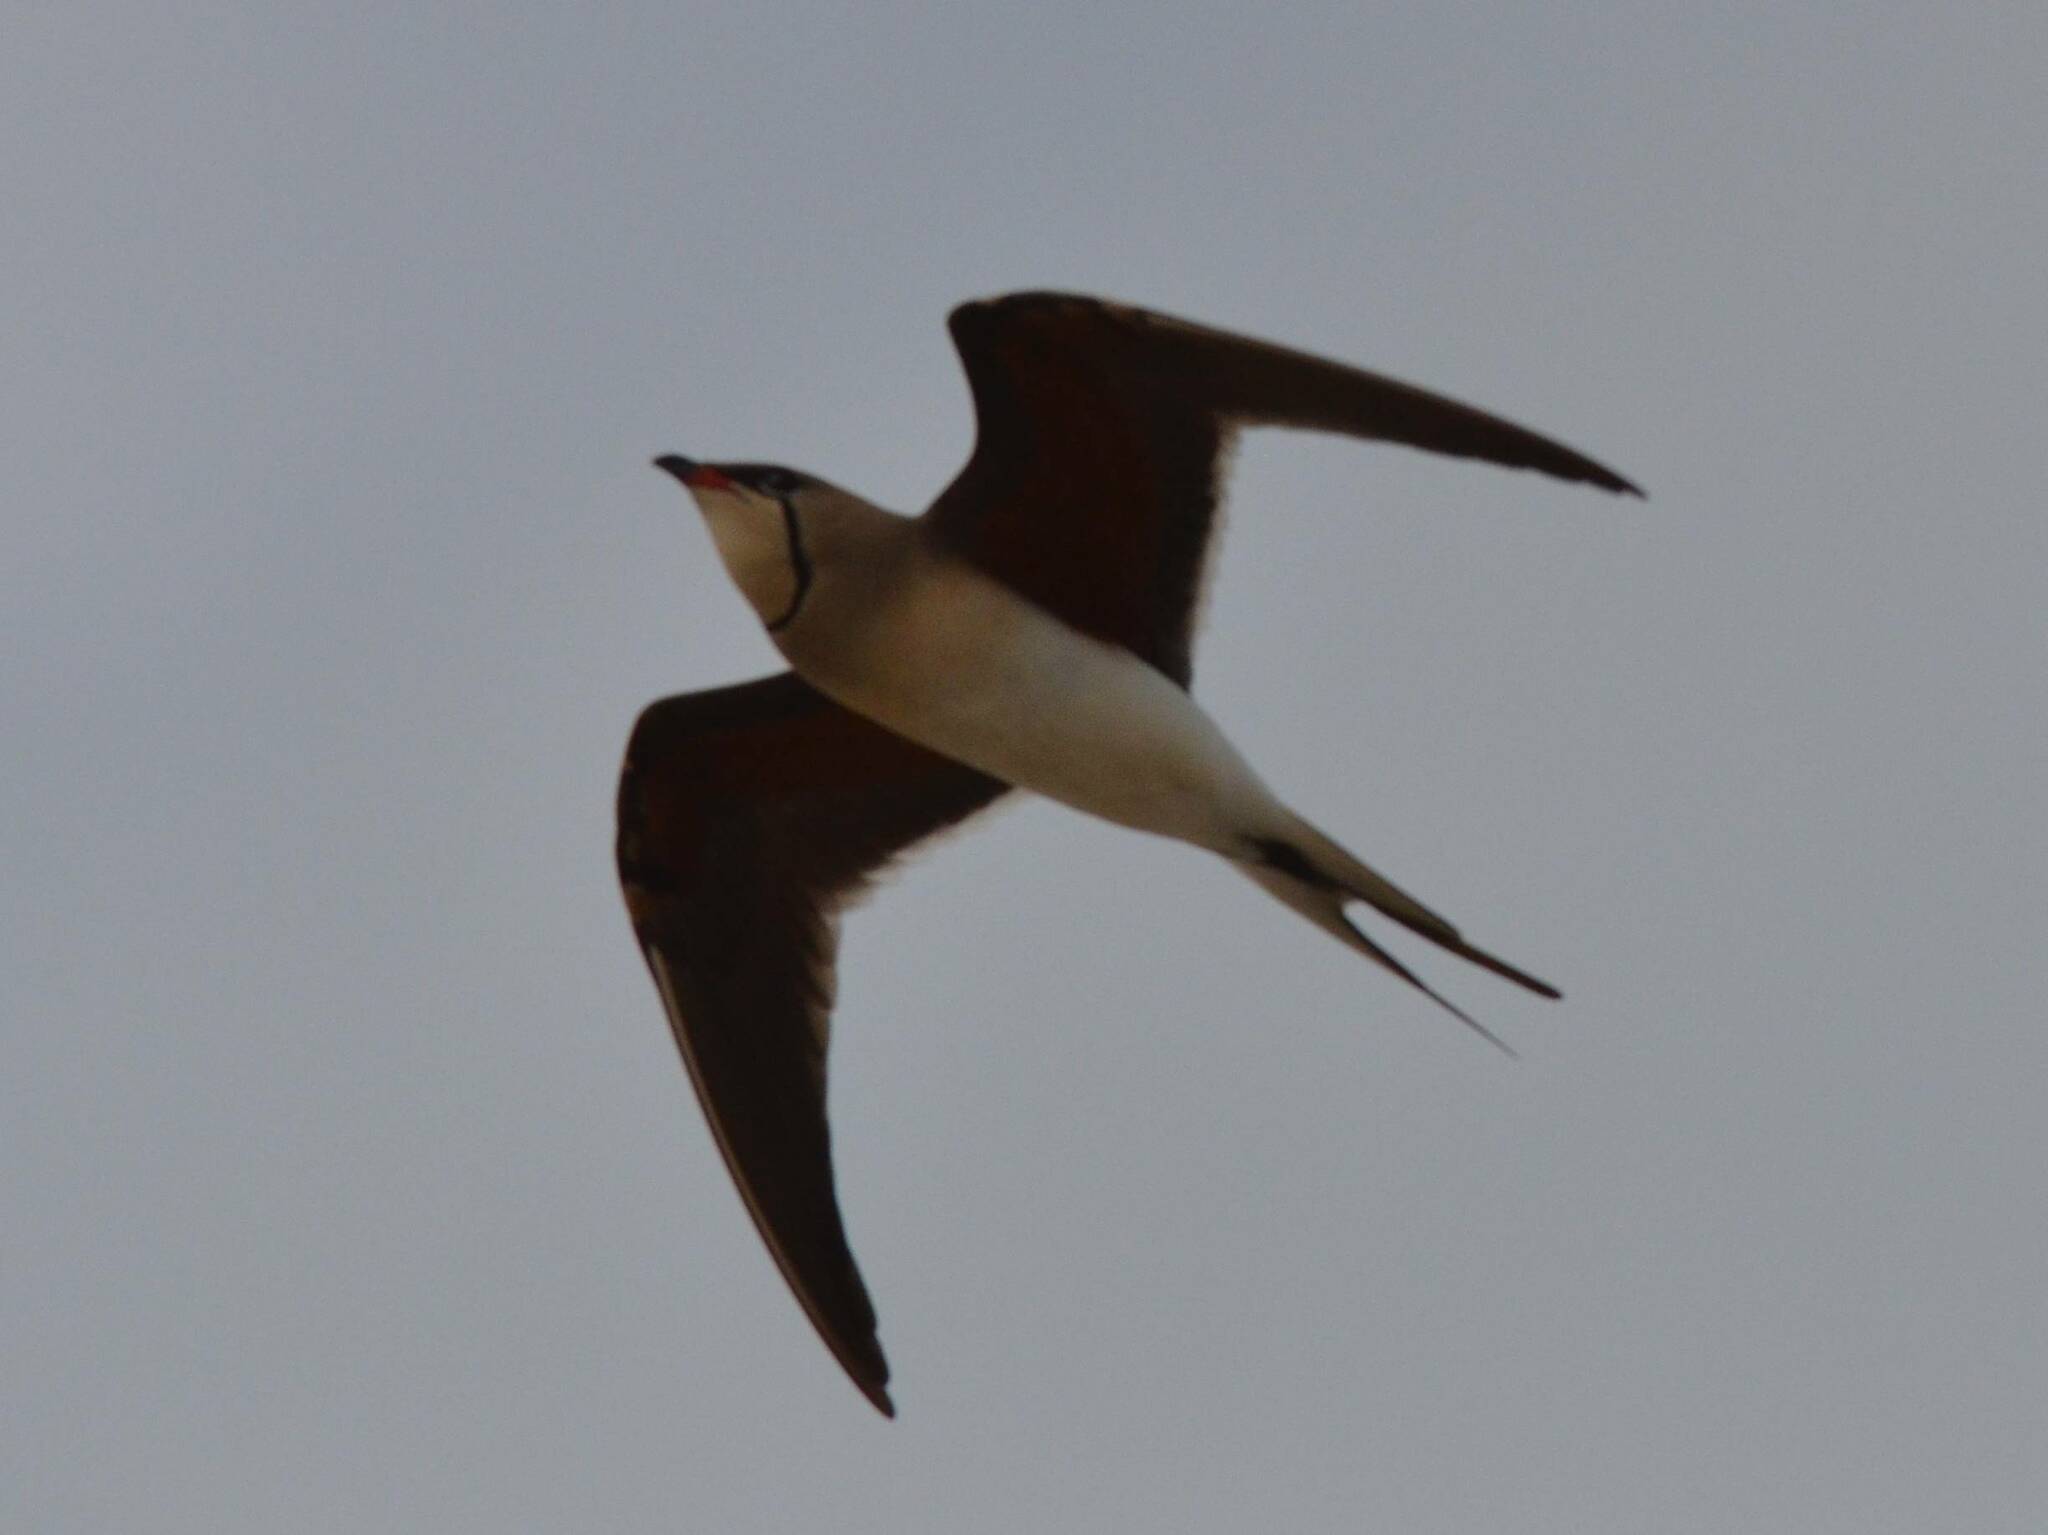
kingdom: Animalia
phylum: Chordata
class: Aves
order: Charadriiformes
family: Glareolidae
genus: Glareola
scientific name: Glareola pratincola
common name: Collared pratincole
